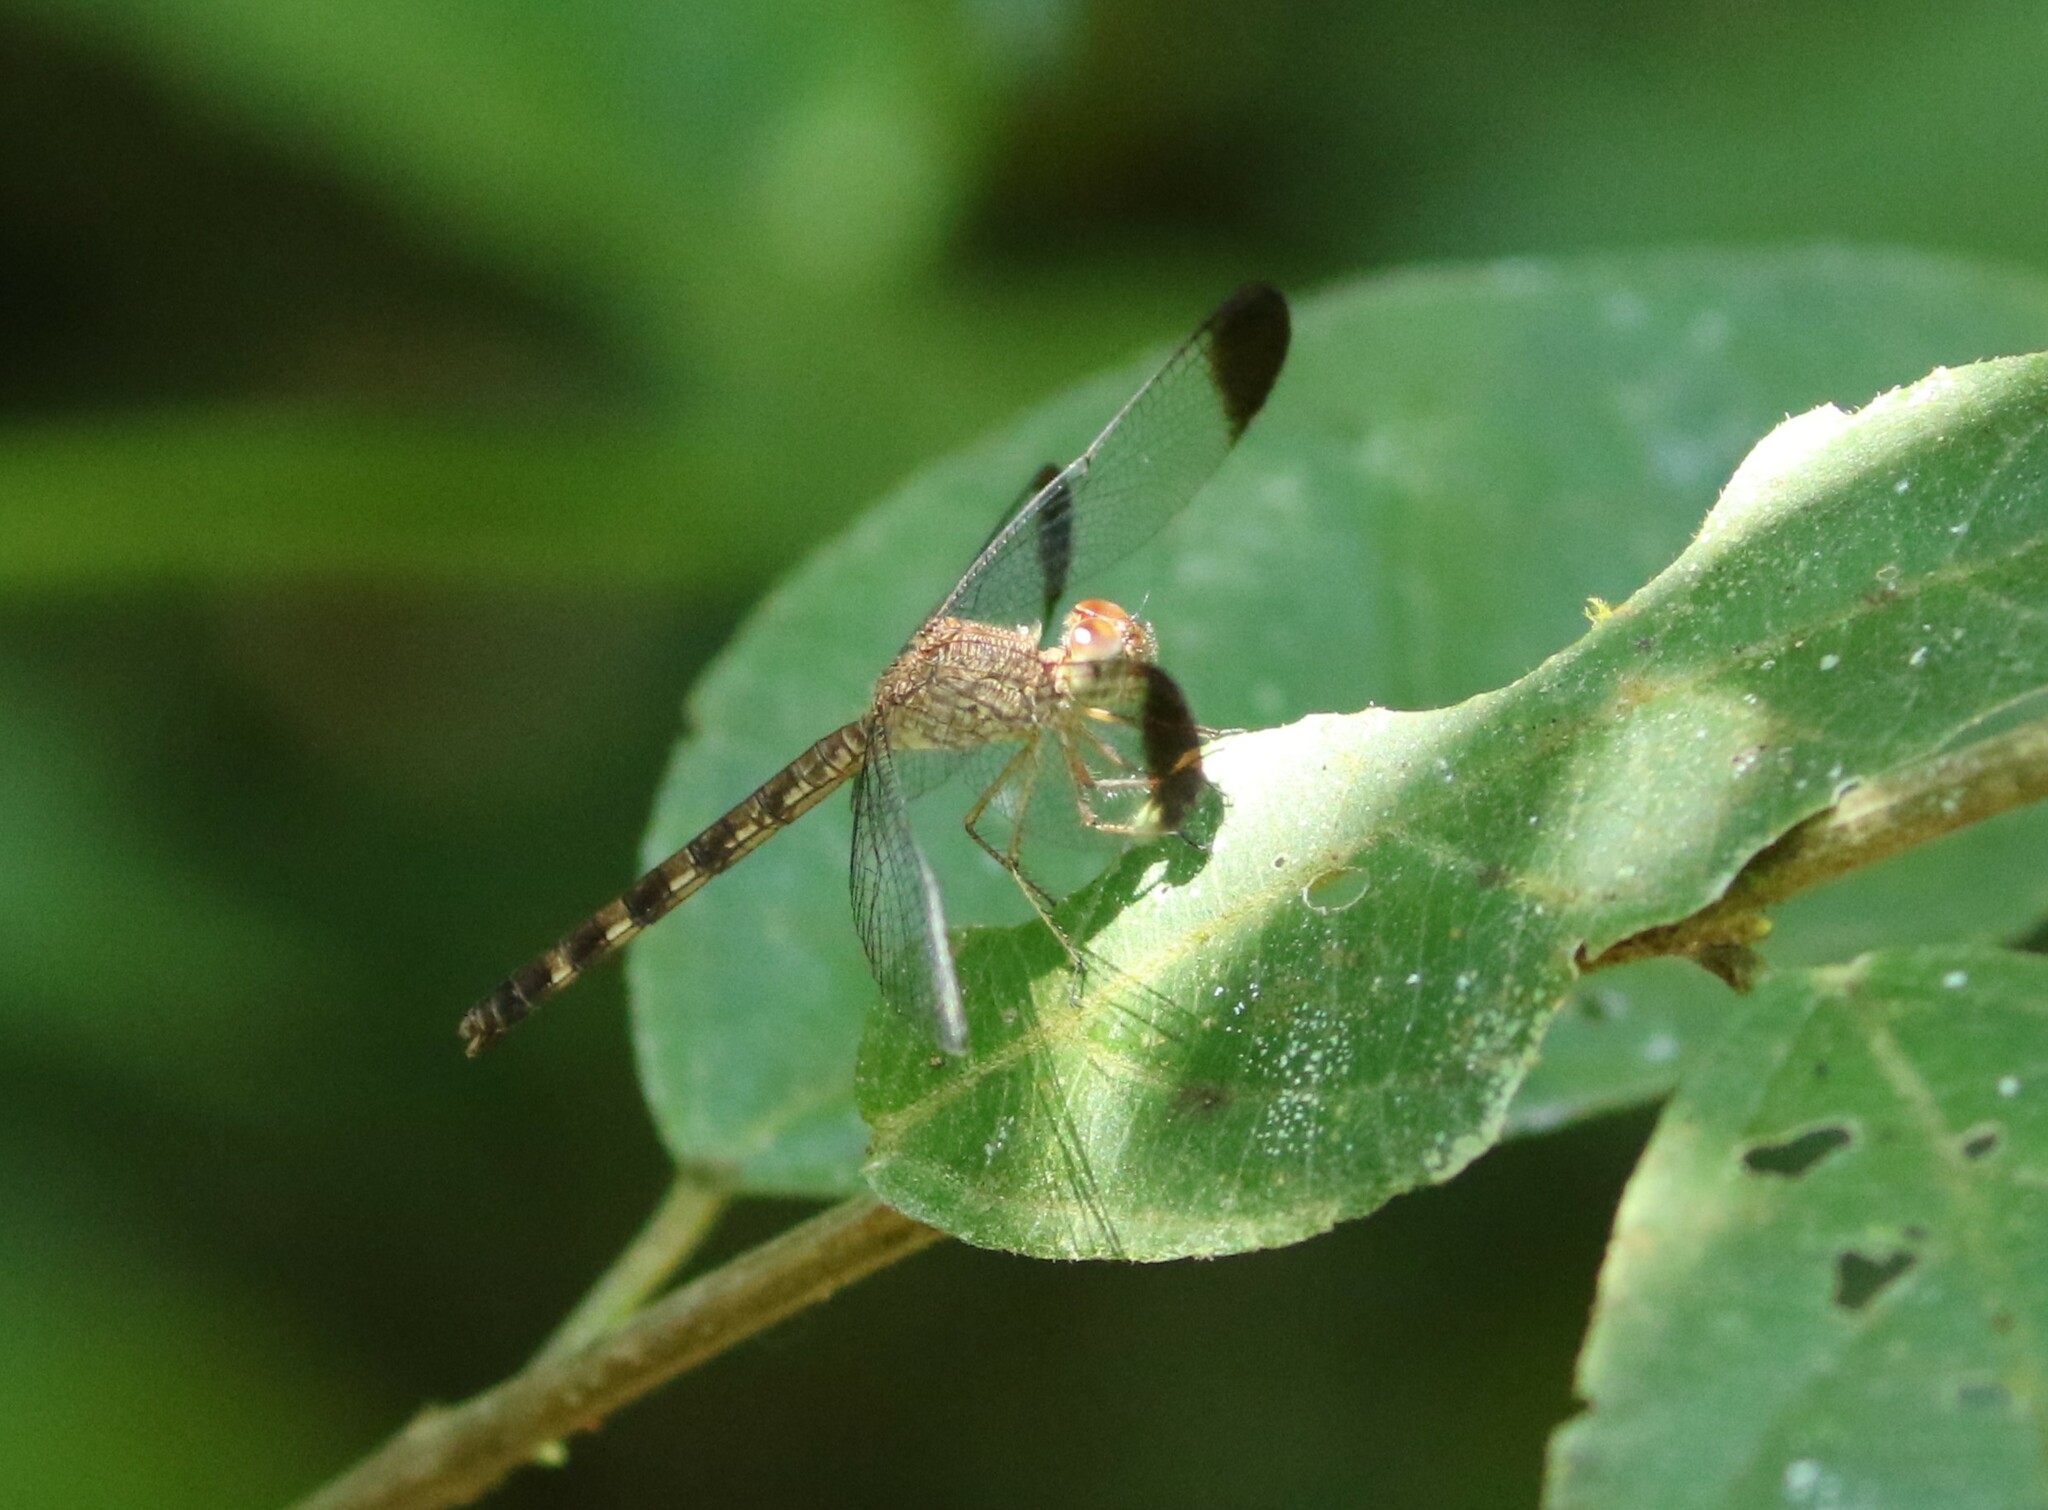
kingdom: Animalia
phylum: Arthropoda
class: Insecta
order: Odonata
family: Libellulidae
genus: Uracis
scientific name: Uracis imbuta
